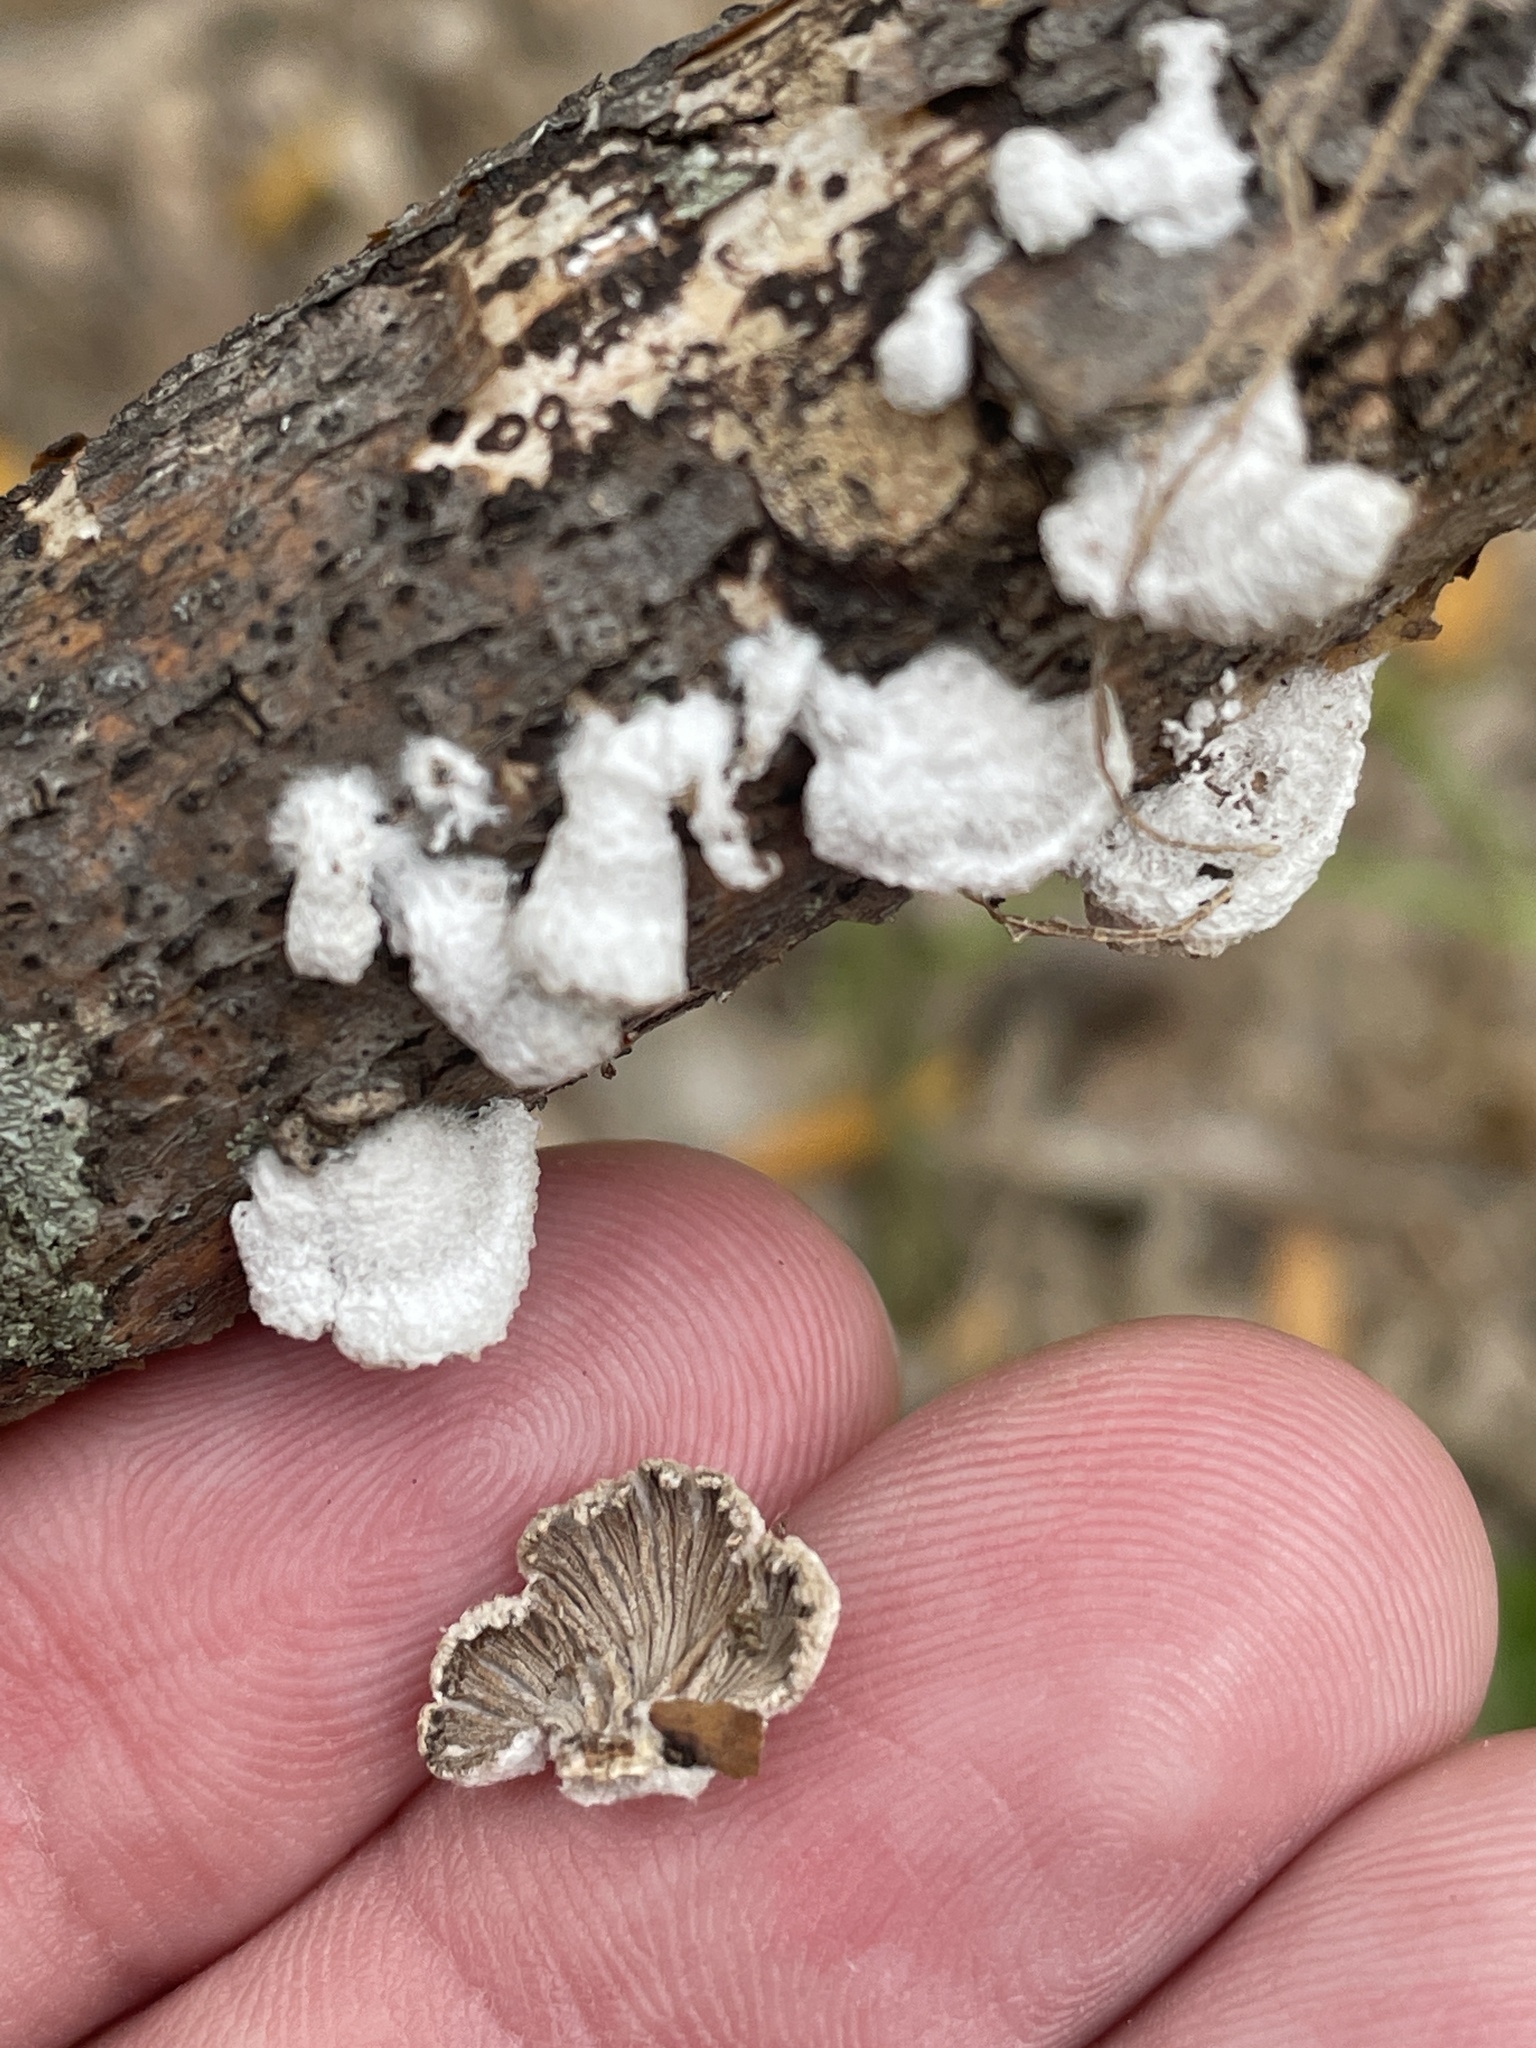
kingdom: Fungi
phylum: Basidiomycota
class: Agaricomycetes
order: Agaricales
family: Schizophyllaceae
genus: Schizophyllum
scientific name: Schizophyllum commune
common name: Common porecrust
